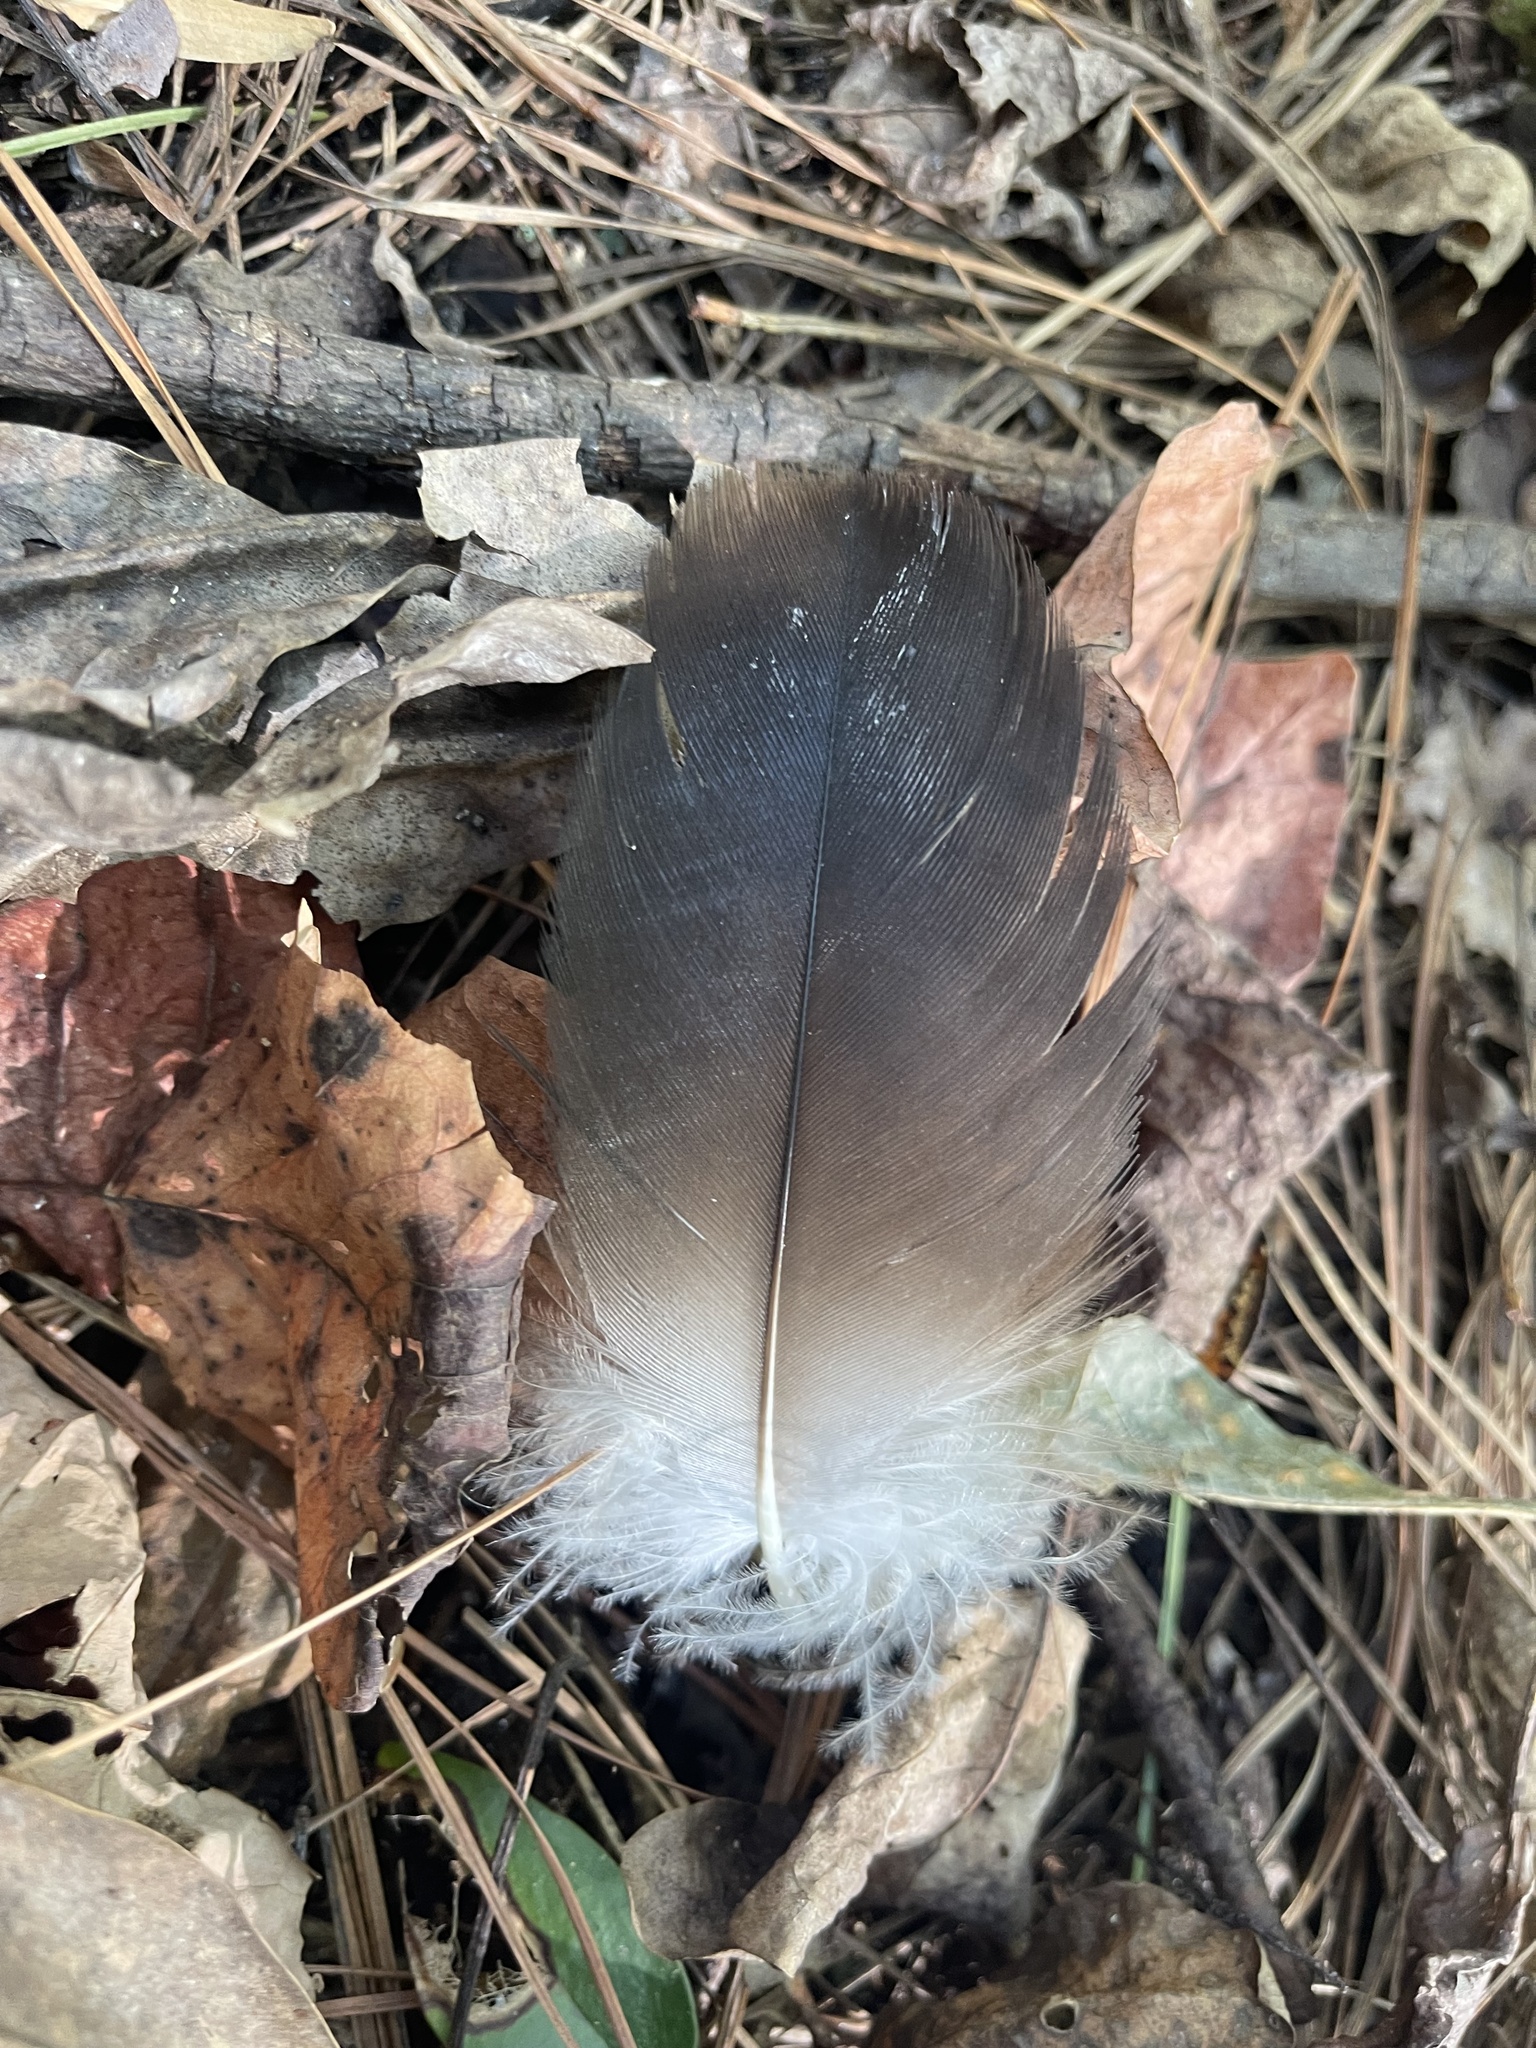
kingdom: Animalia
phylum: Chordata
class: Aves
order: Accipitriformes
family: Cathartidae
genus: Cathartes
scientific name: Cathartes aura
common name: Turkey vulture
